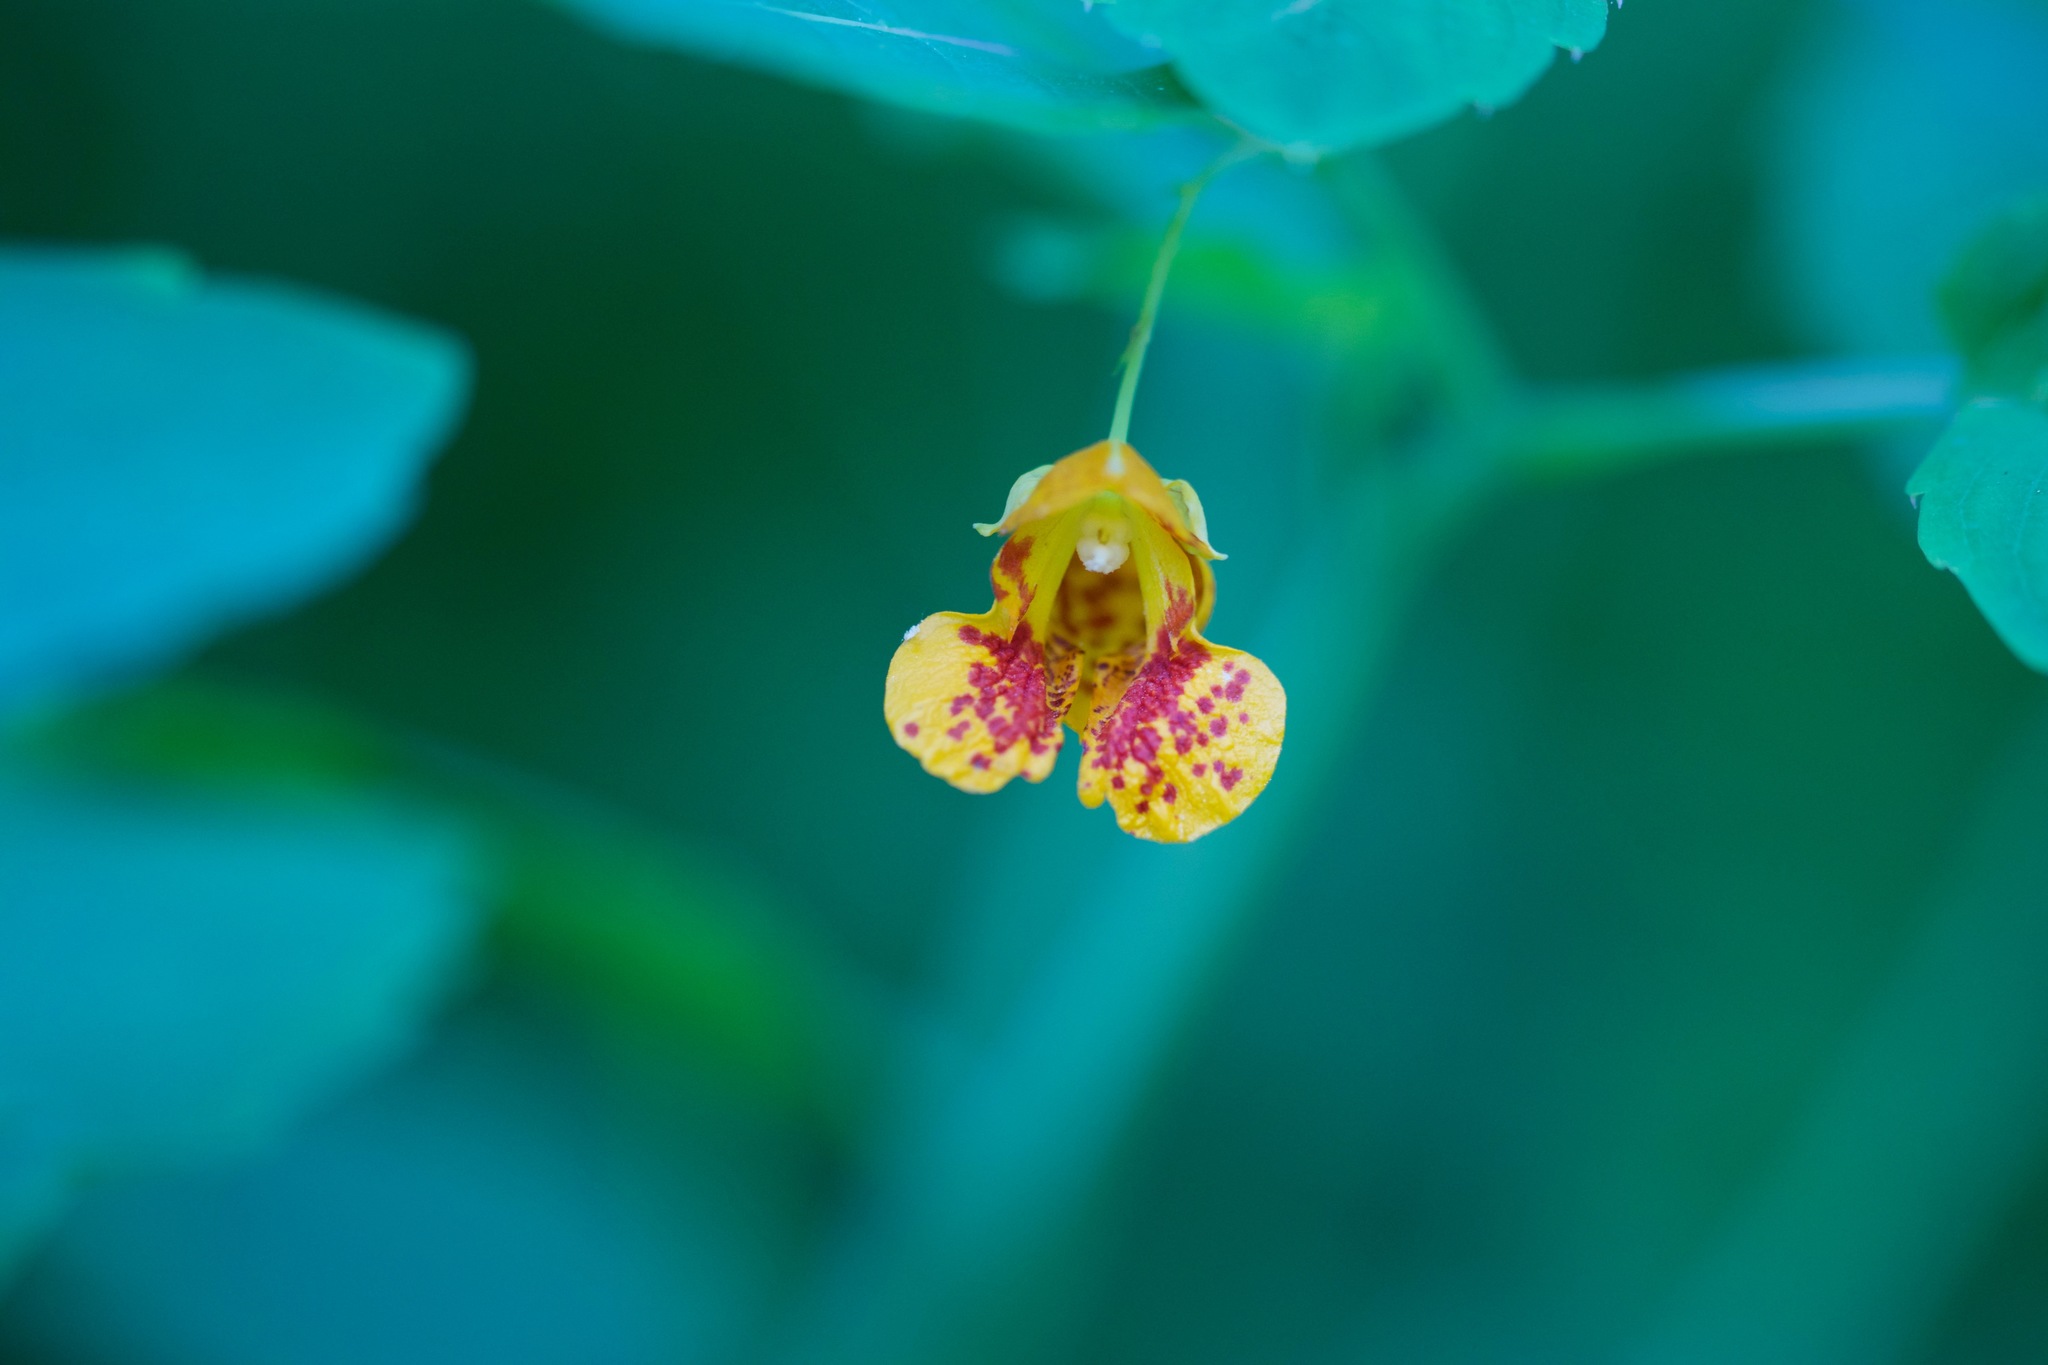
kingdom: Plantae
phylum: Tracheophyta
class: Magnoliopsida
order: Ericales
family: Balsaminaceae
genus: Impatiens
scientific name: Impatiens capensis
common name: Orange balsam
